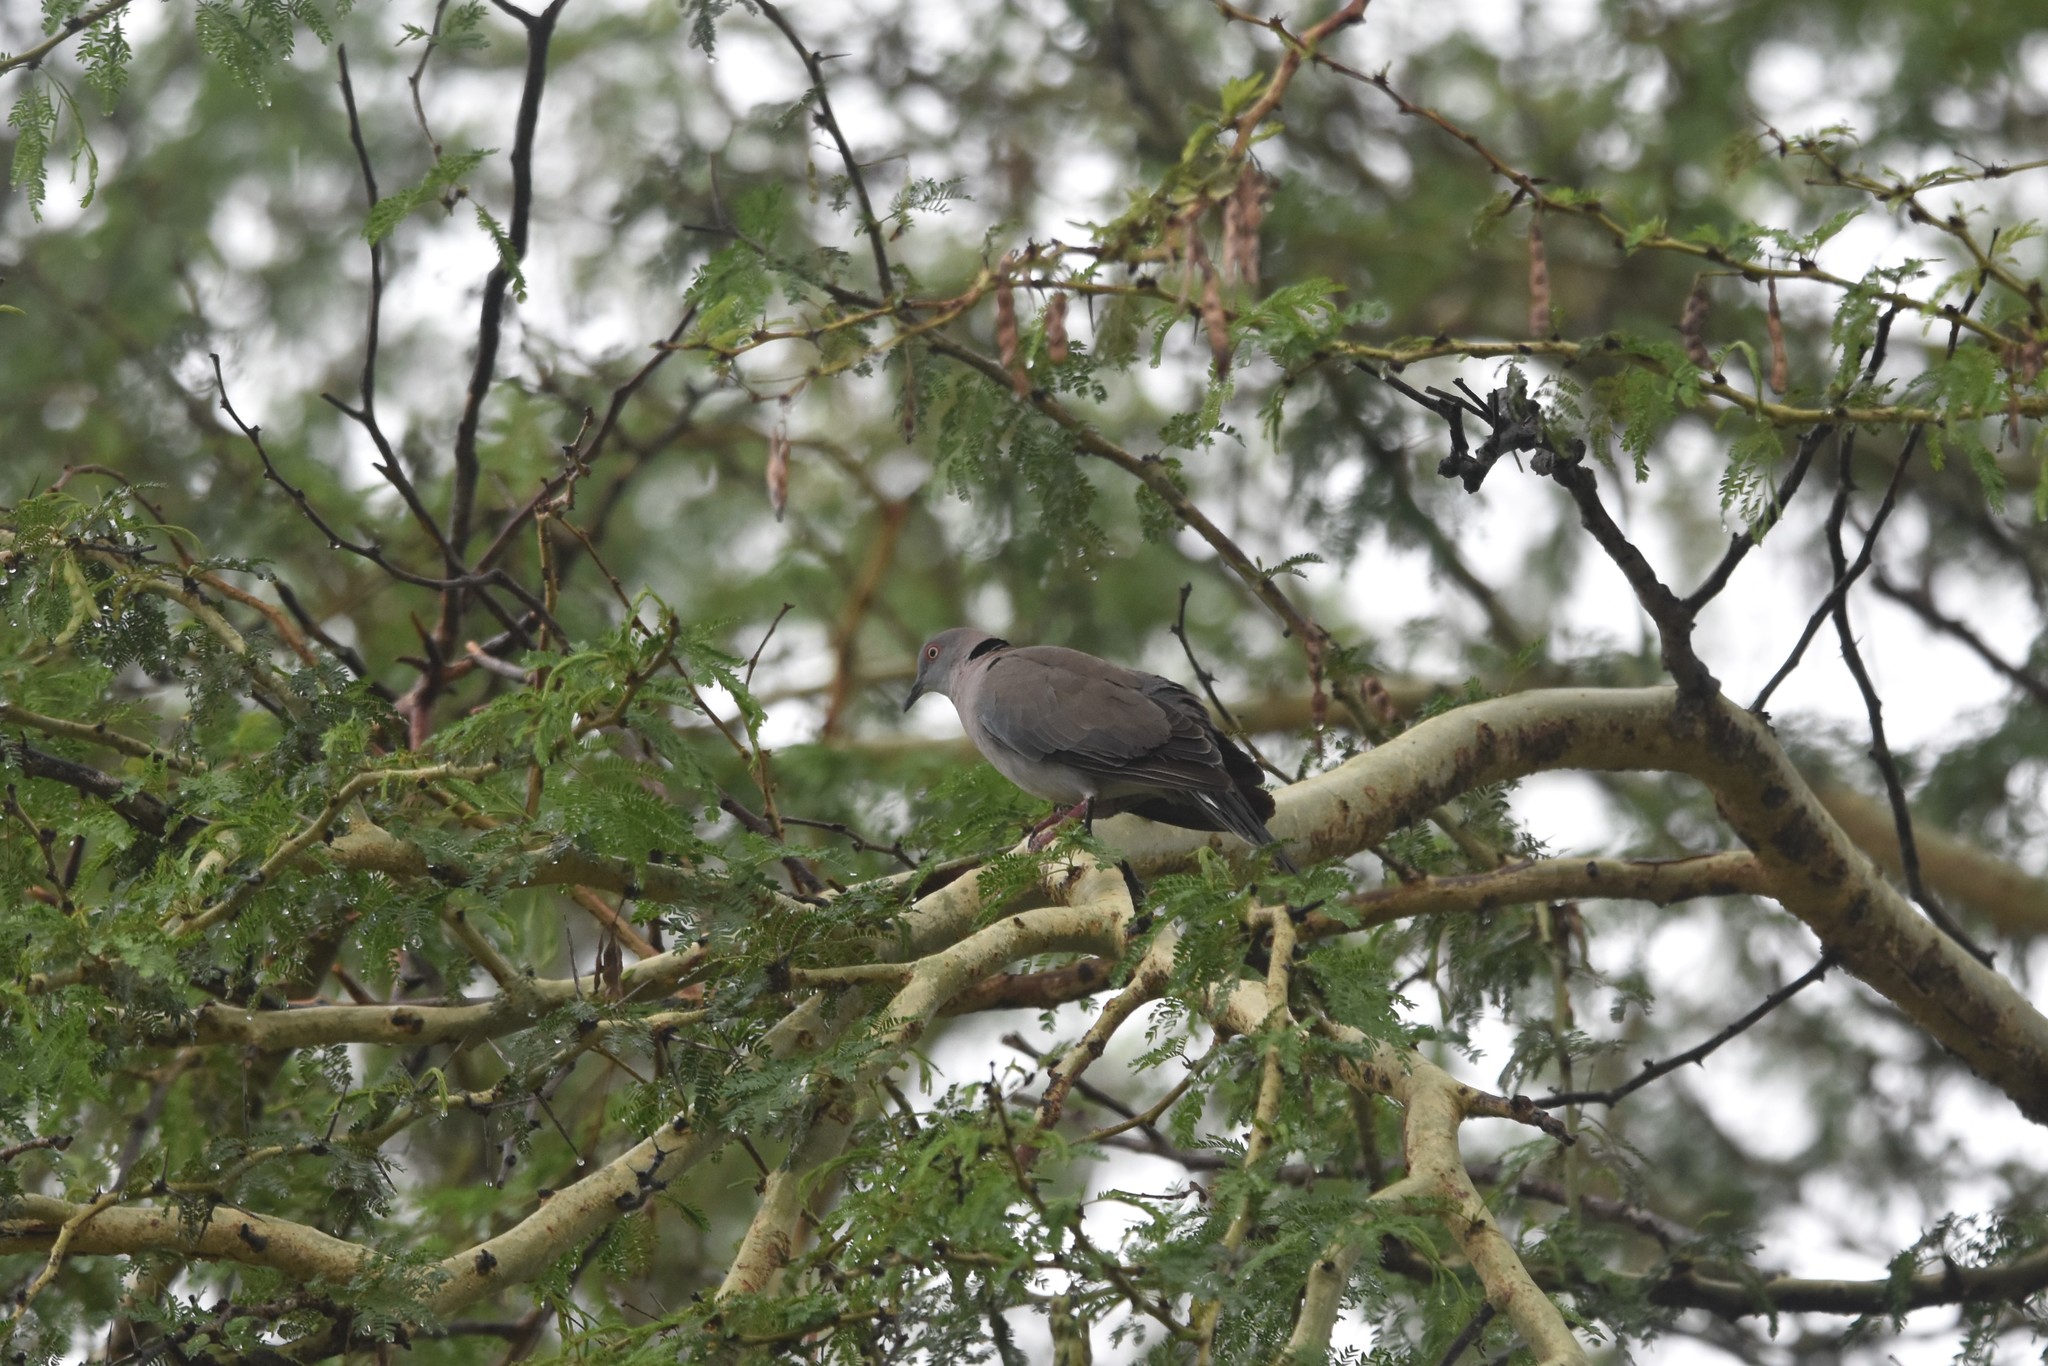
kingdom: Animalia
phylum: Chordata
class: Aves
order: Columbiformes
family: Columbidae
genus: Streptopelia
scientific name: Streptopelia decipiens
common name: Mourning collared dove
